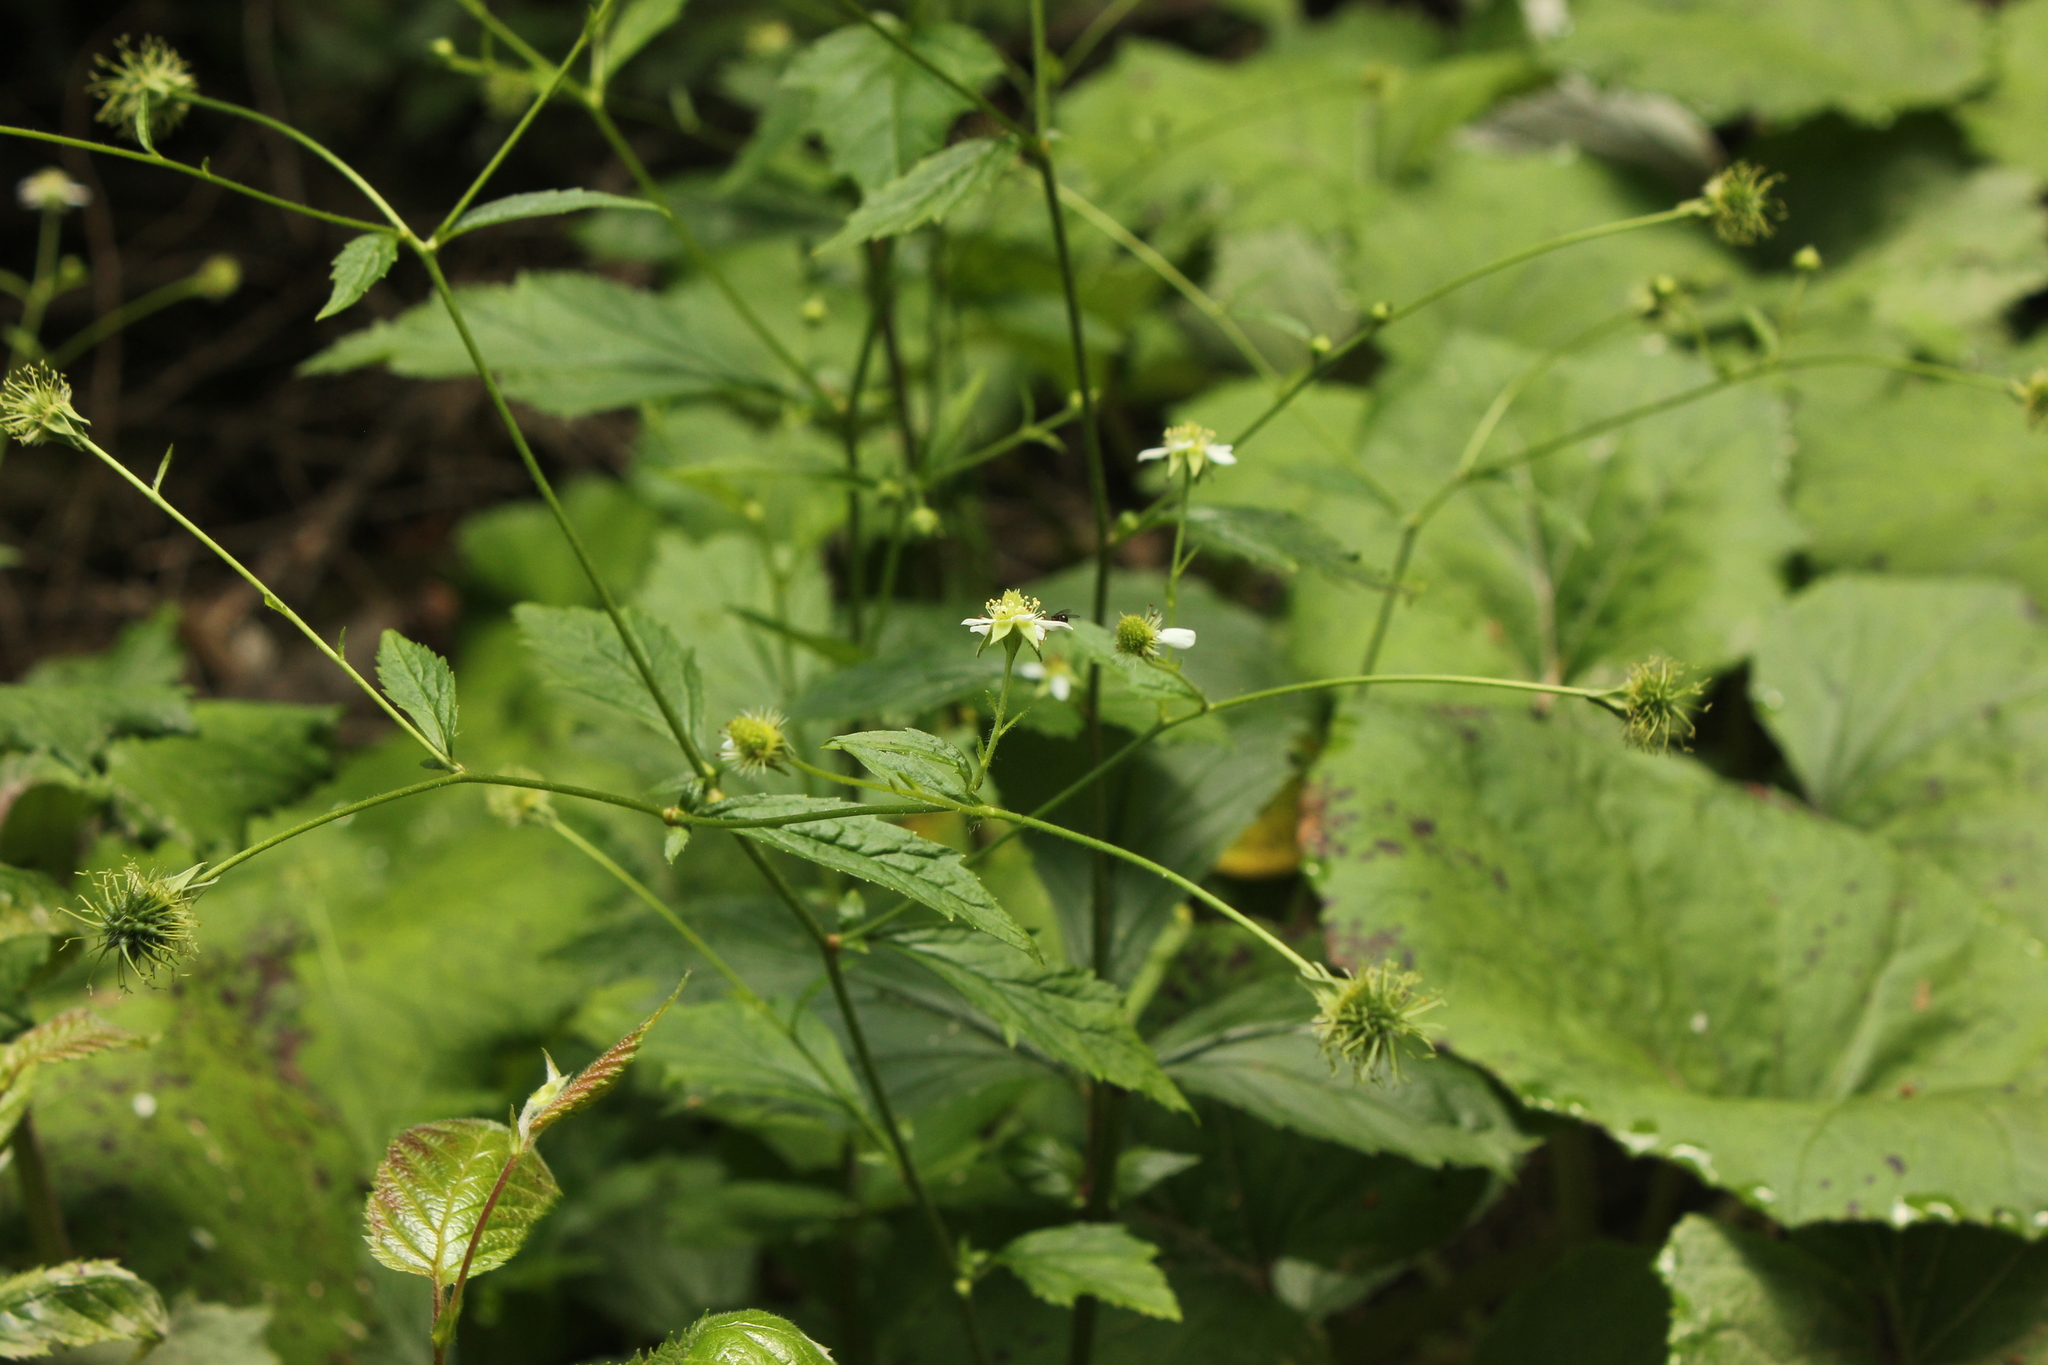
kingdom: Plantae
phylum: Tracheophyta
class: Magnoliopsida
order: Rosales
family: Rosaceae
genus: Geum
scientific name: Geum canadense
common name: White avens
